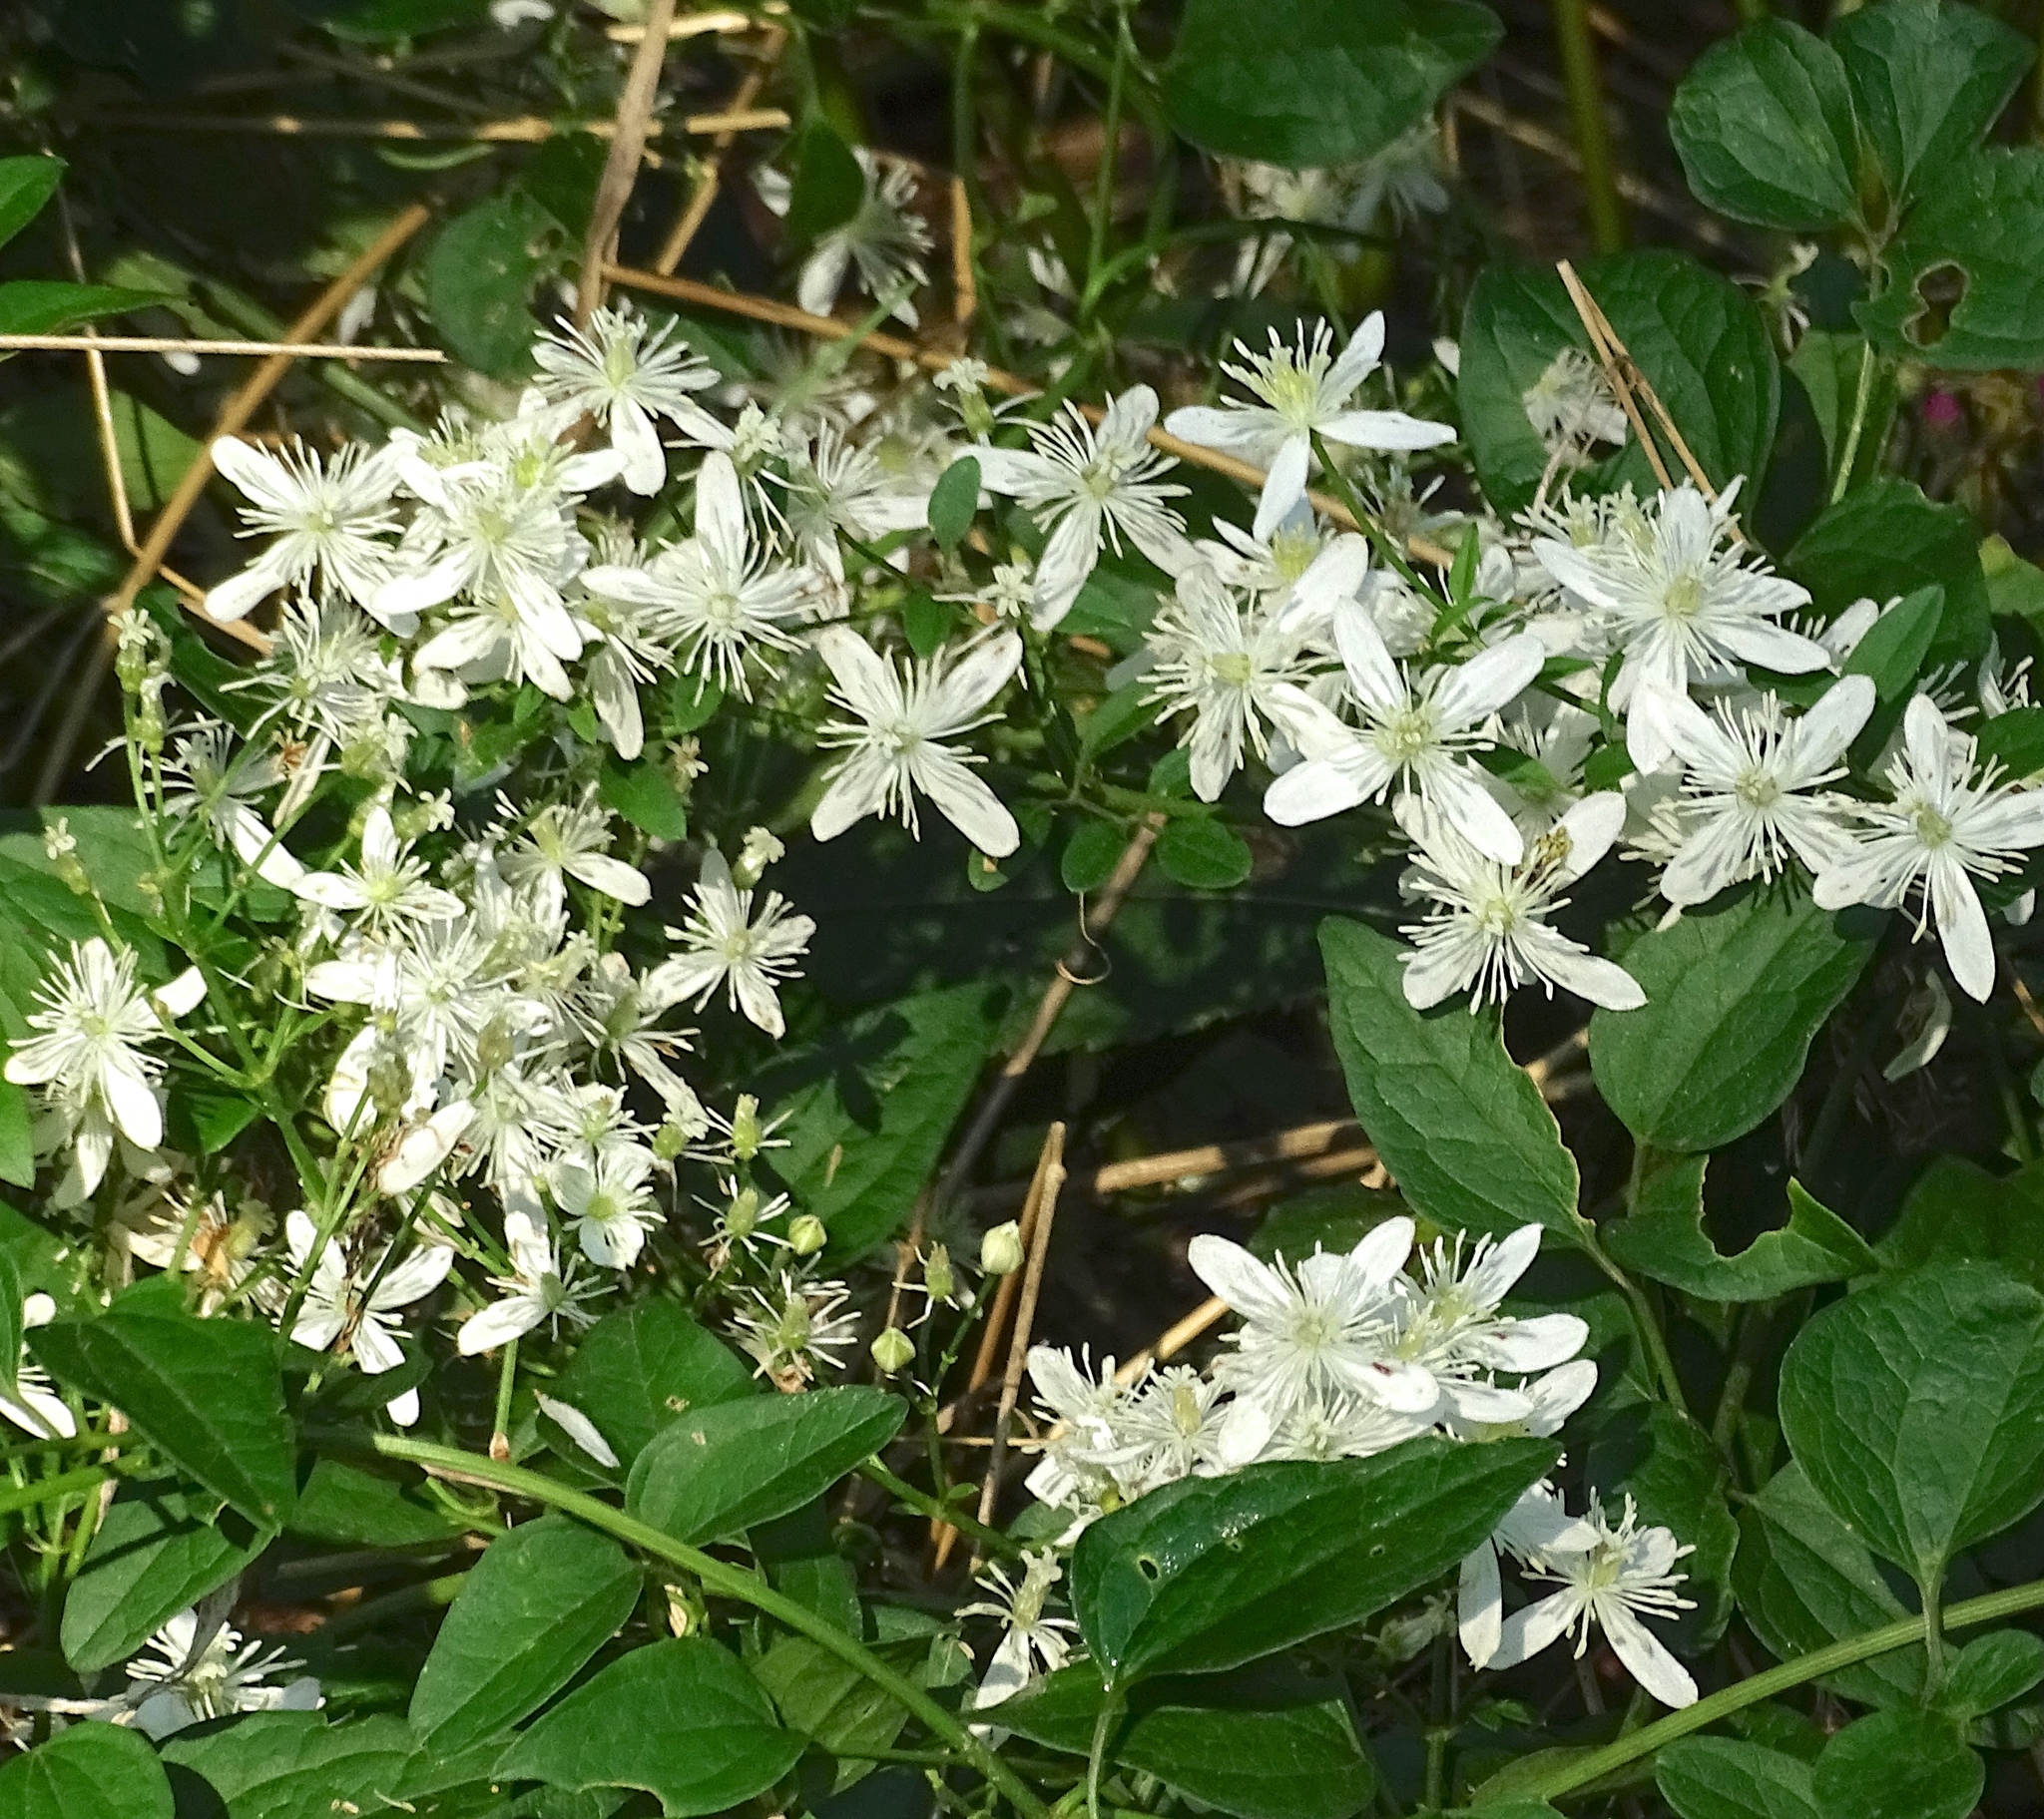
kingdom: Plantae
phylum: Tracheophyta
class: Magnoliopsida
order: Ranunculales
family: Ranunculaceae
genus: Clematis
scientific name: Clematis terniflora
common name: Sweet autumn clematis
